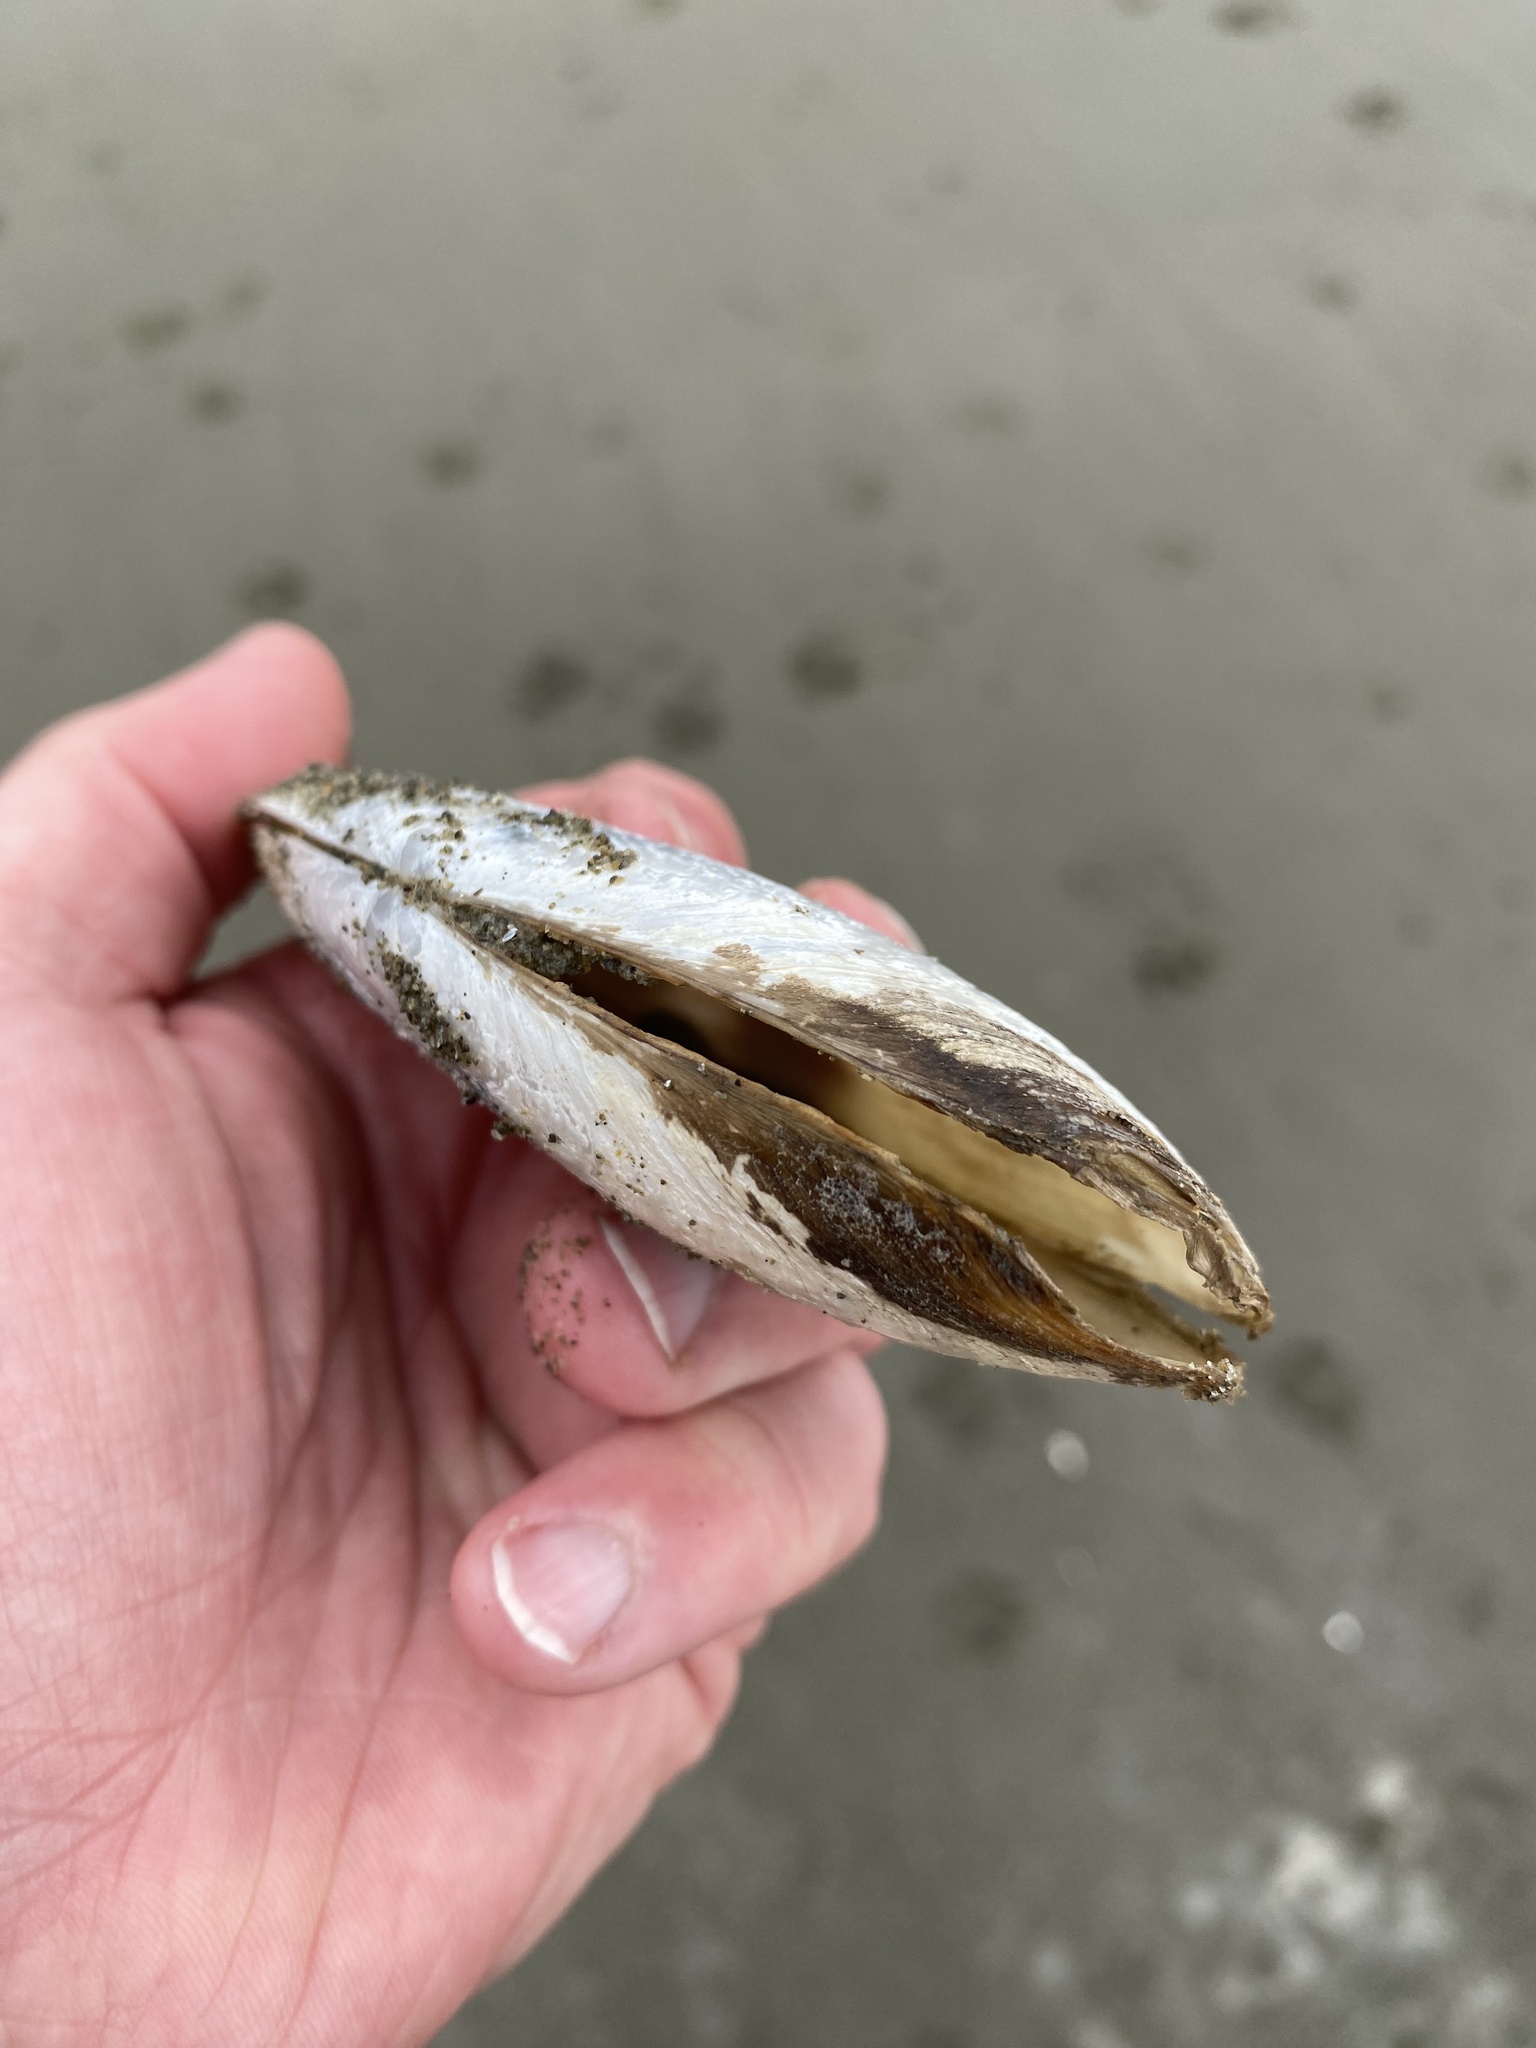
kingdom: Animalia
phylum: Mollusca
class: Bivalvia
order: Venerida
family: Mactridae
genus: Resania
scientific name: Resania lanceolata
